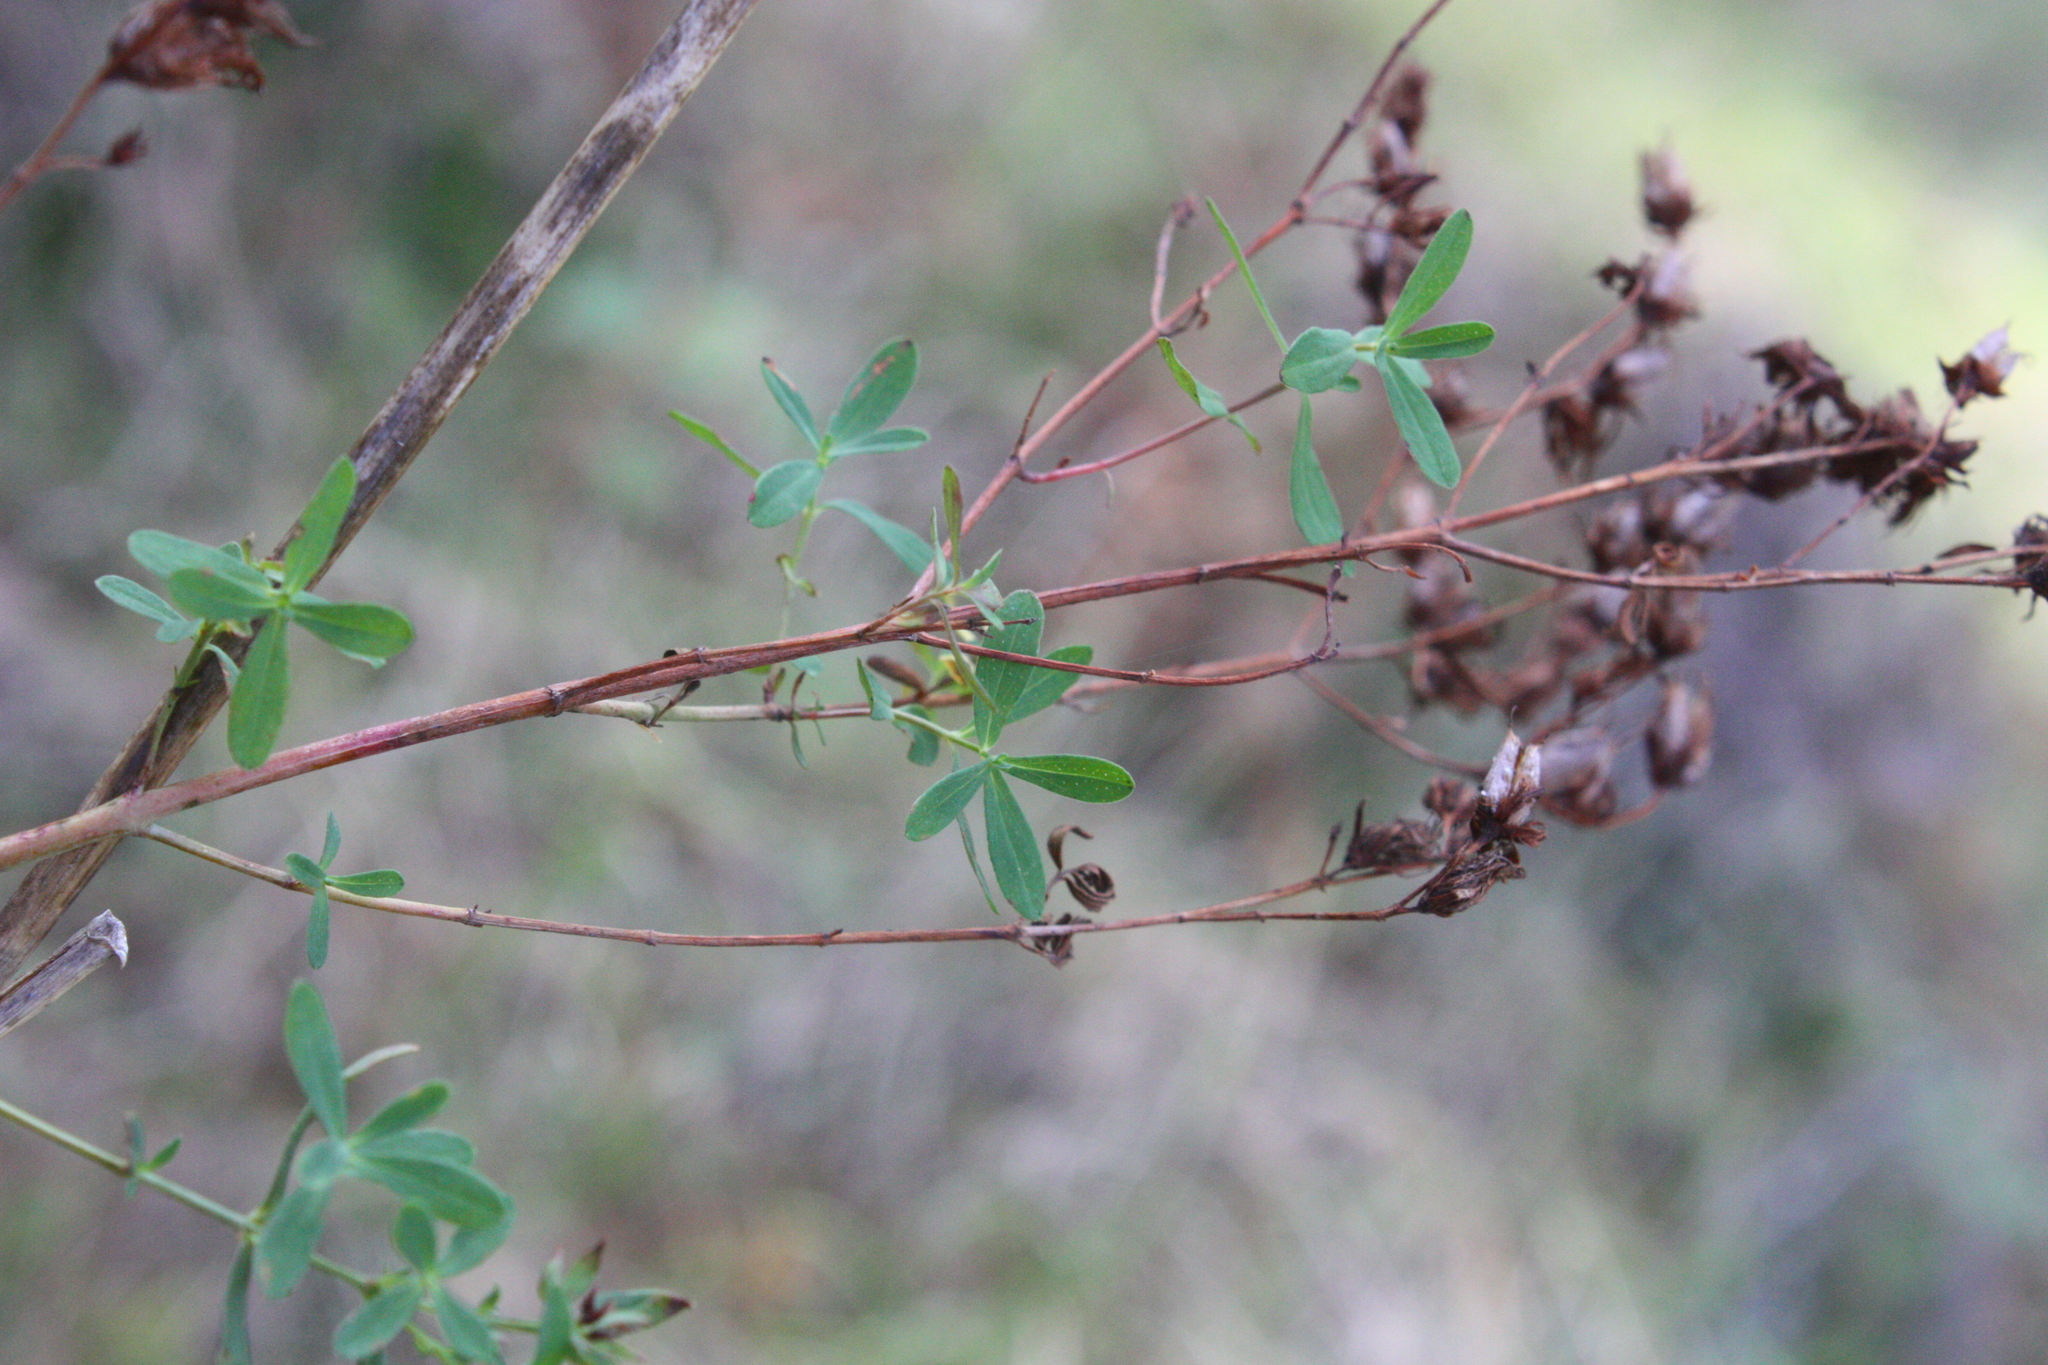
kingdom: Plantae
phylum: Tracheophyta
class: Magnoliopsida
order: Malpighiales
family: Hypericaceae
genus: Hypericum
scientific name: Hypericum perforatum
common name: Common st. johnswort
